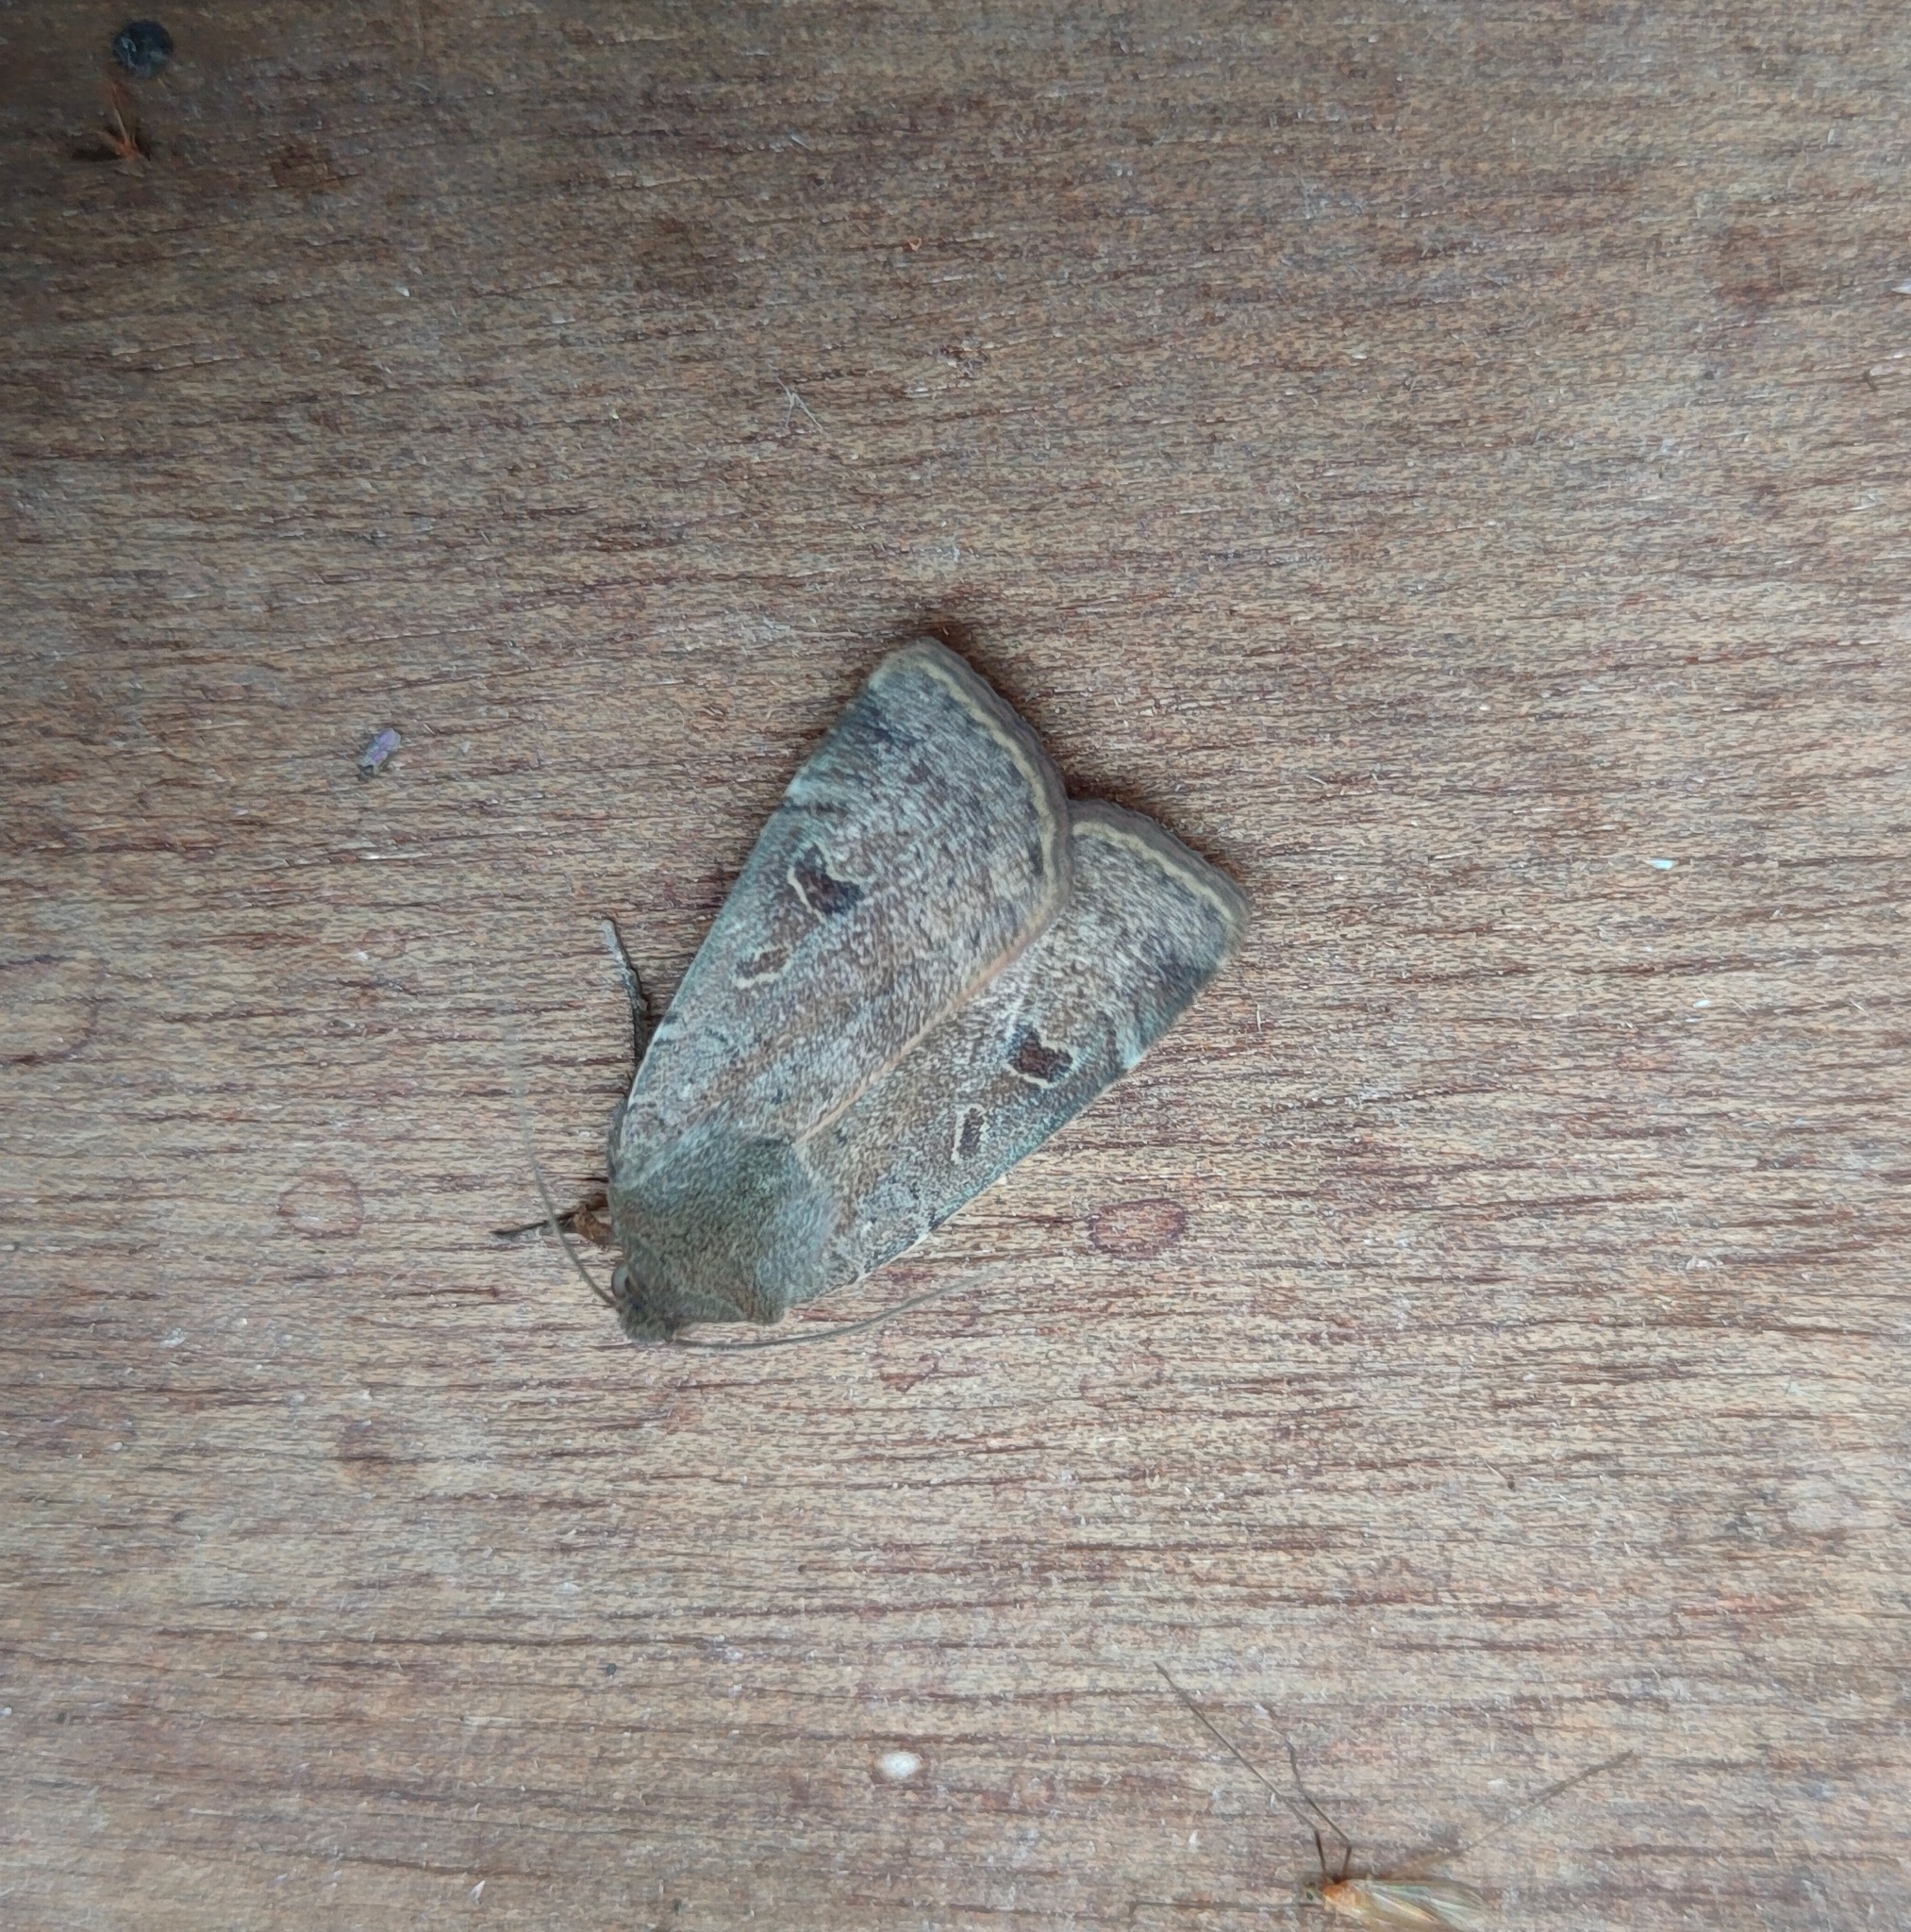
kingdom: Animalia
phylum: Arthropoda
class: Insecta
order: Lepidoptera
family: Noctuidae
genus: Noctua
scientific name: Noctua comes
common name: Lesser yellow underwing
